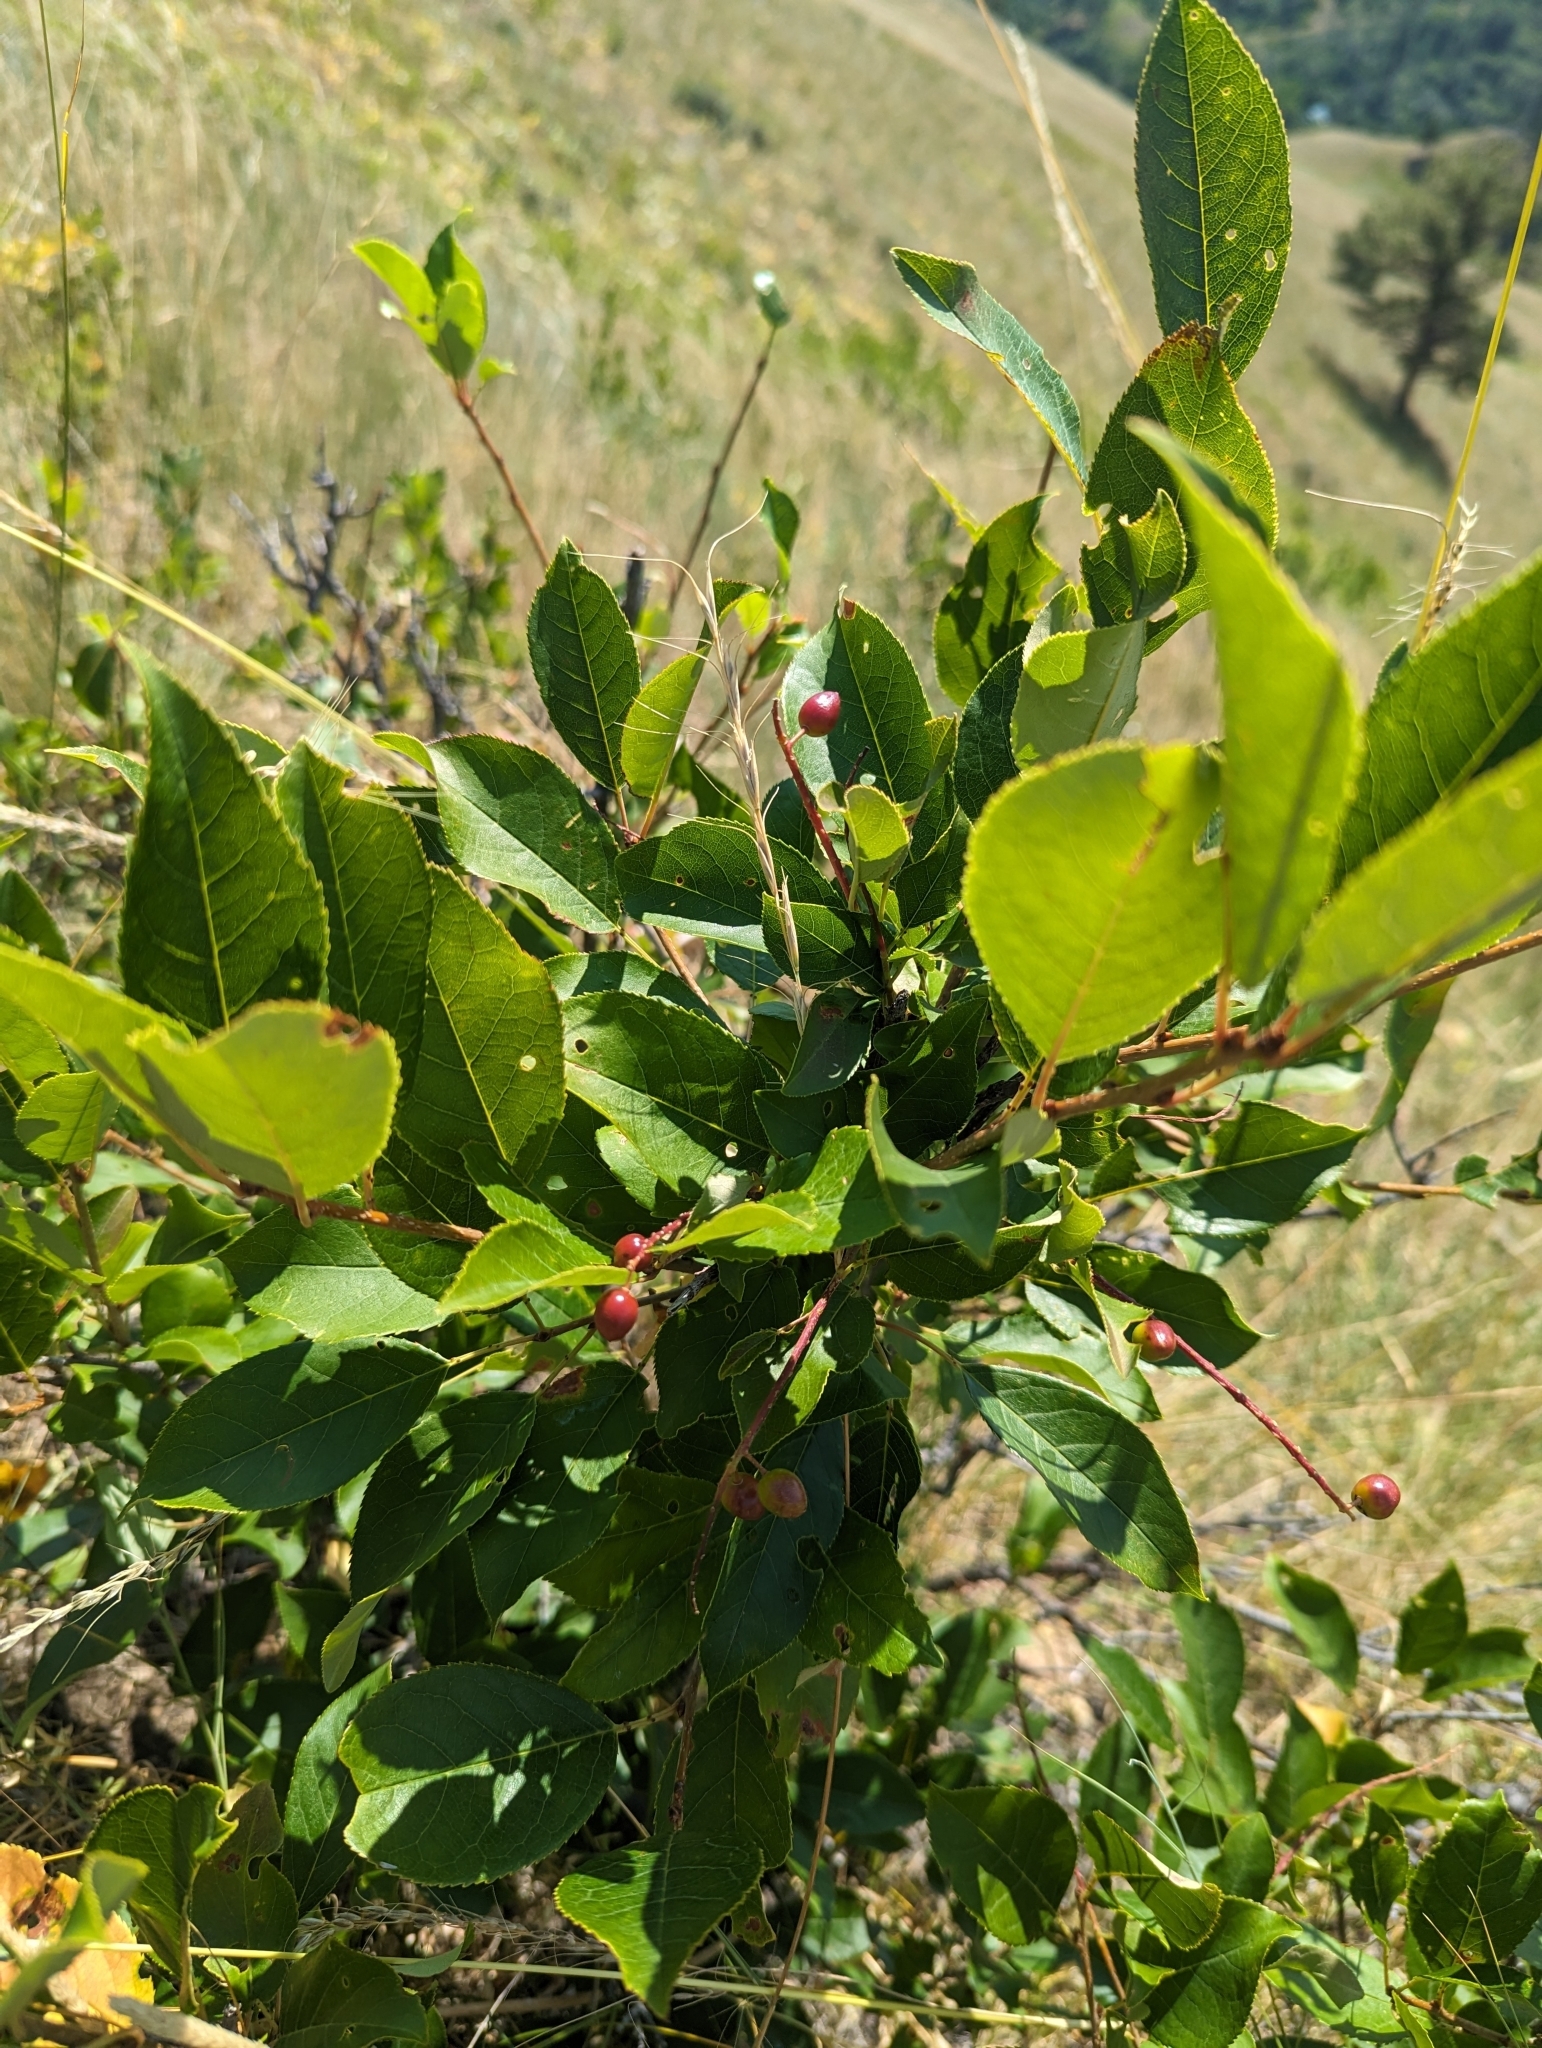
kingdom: Plantae
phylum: Tracheophyta
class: Magnoliopsida
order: Rosales
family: Rosaceae
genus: Prunus
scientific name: Prunus virginiana
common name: Chokecherry
